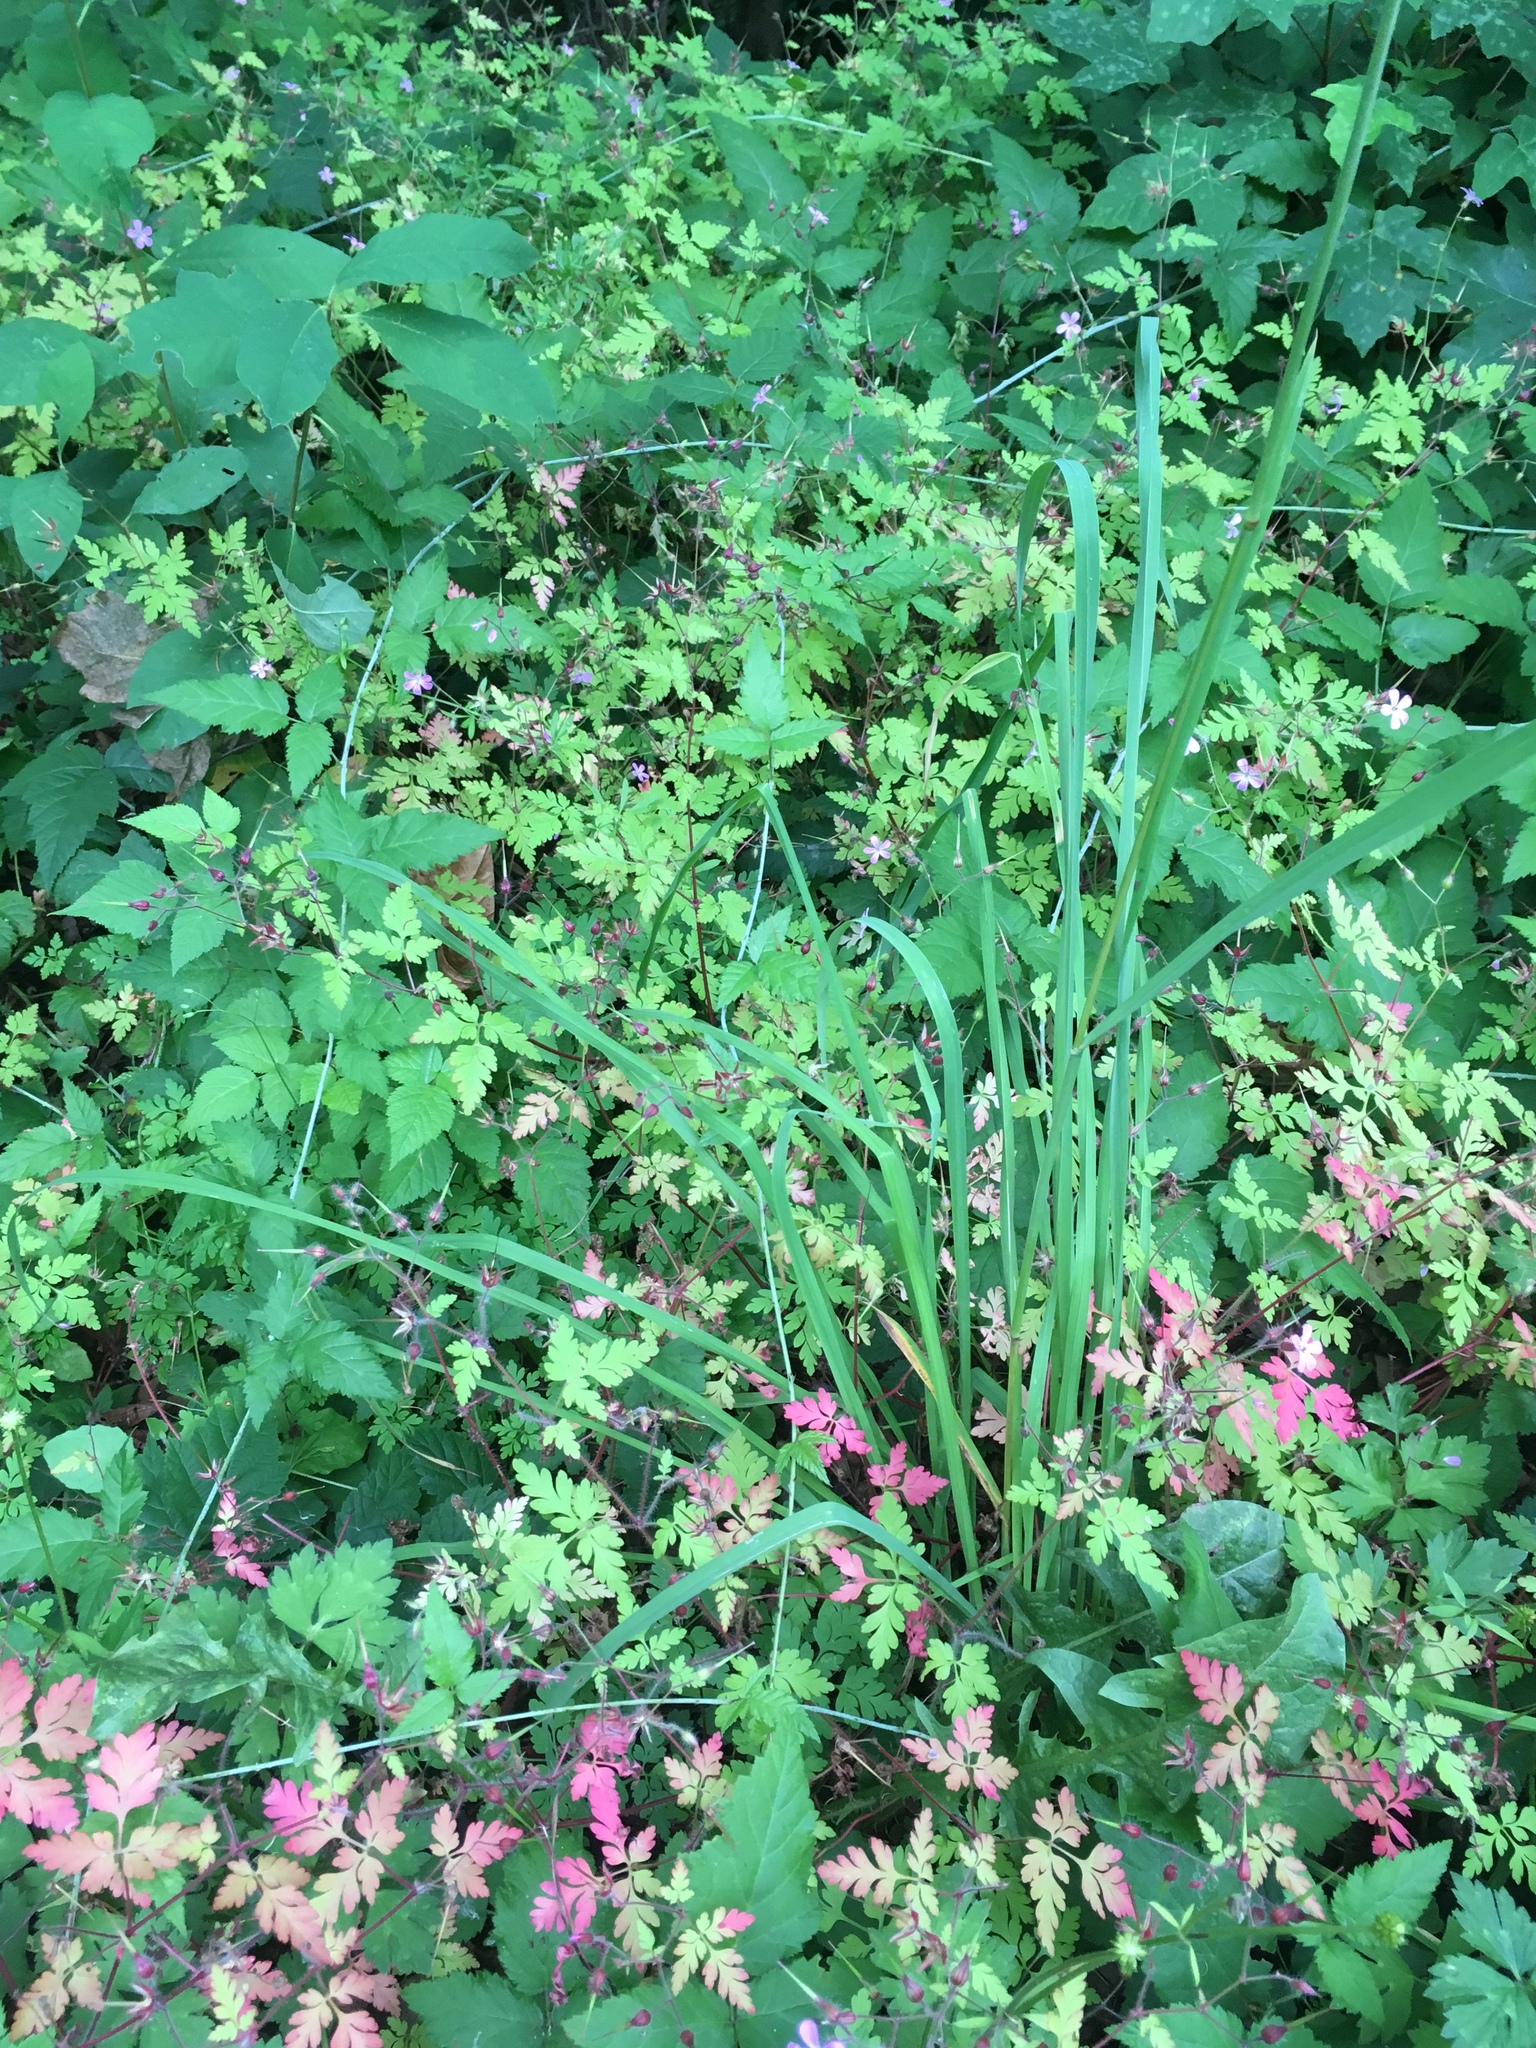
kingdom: Plantae
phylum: Tracheophyta
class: Liliopsida
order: Poales
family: Poaceae
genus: Dactylis
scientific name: Dactylis glomerata
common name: Orchardgrass
